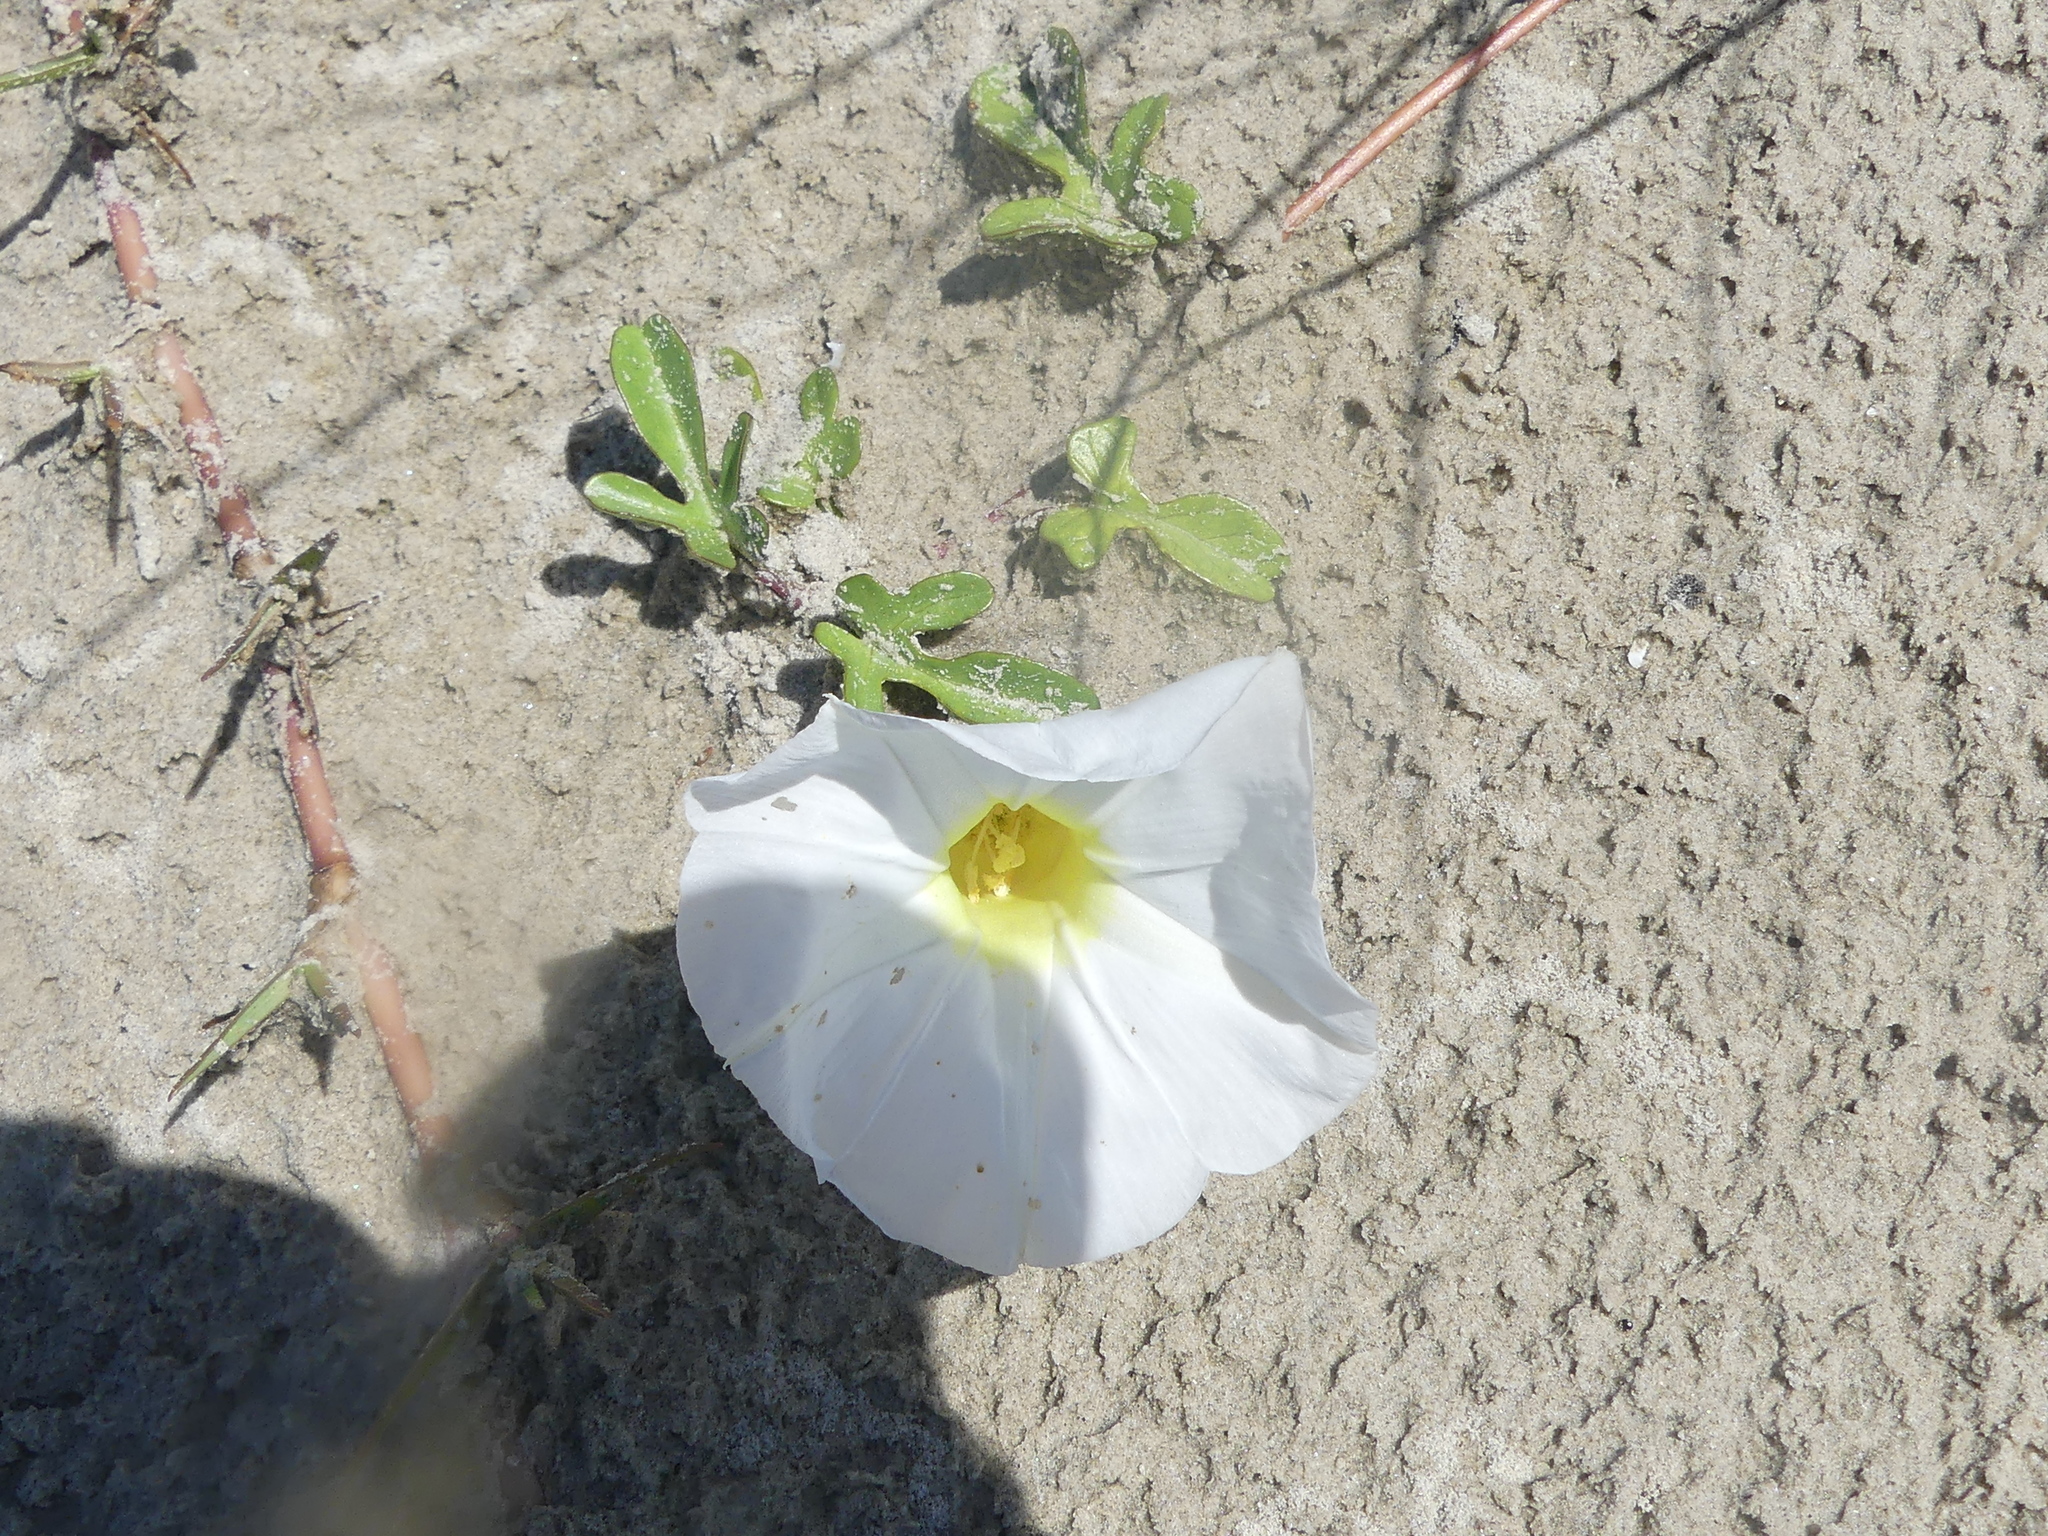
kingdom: Plantae
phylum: Tracheophyta
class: Magnoliopsida
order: Solanales
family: Convolvulaceae
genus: Ipomoea
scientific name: Ipomoea imperati
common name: Fiddle-leaf morning-glory
